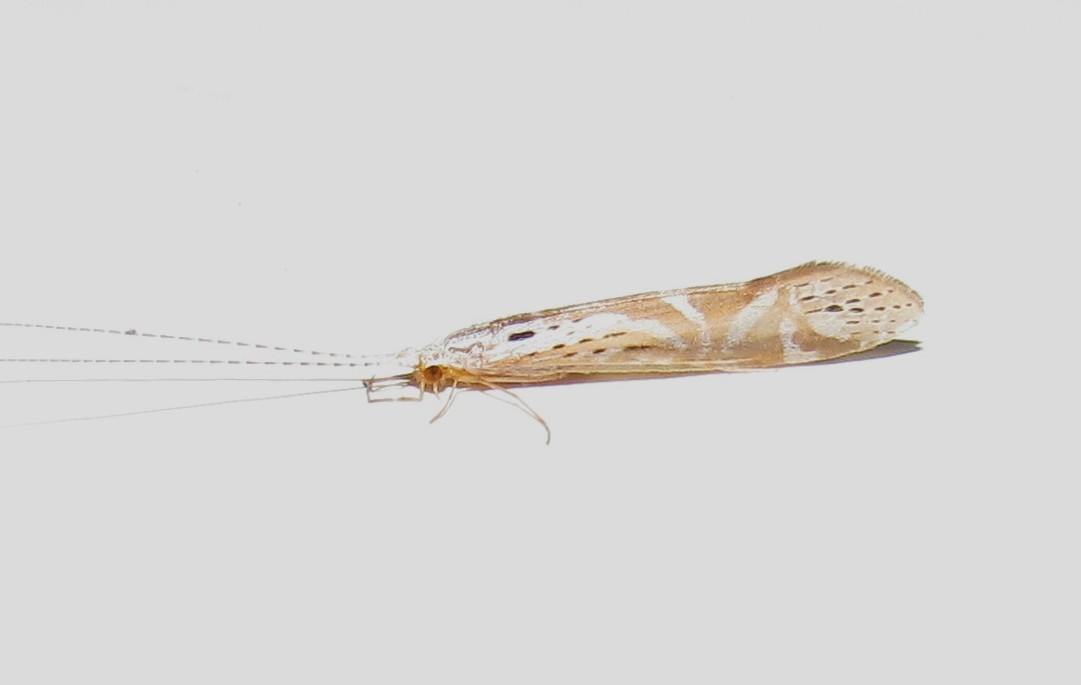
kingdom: Animalia
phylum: Arthropoda
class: Insecta
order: Trichoptera
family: Leptoceridae
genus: Nectopsyche
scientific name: Nectopsyche separata
